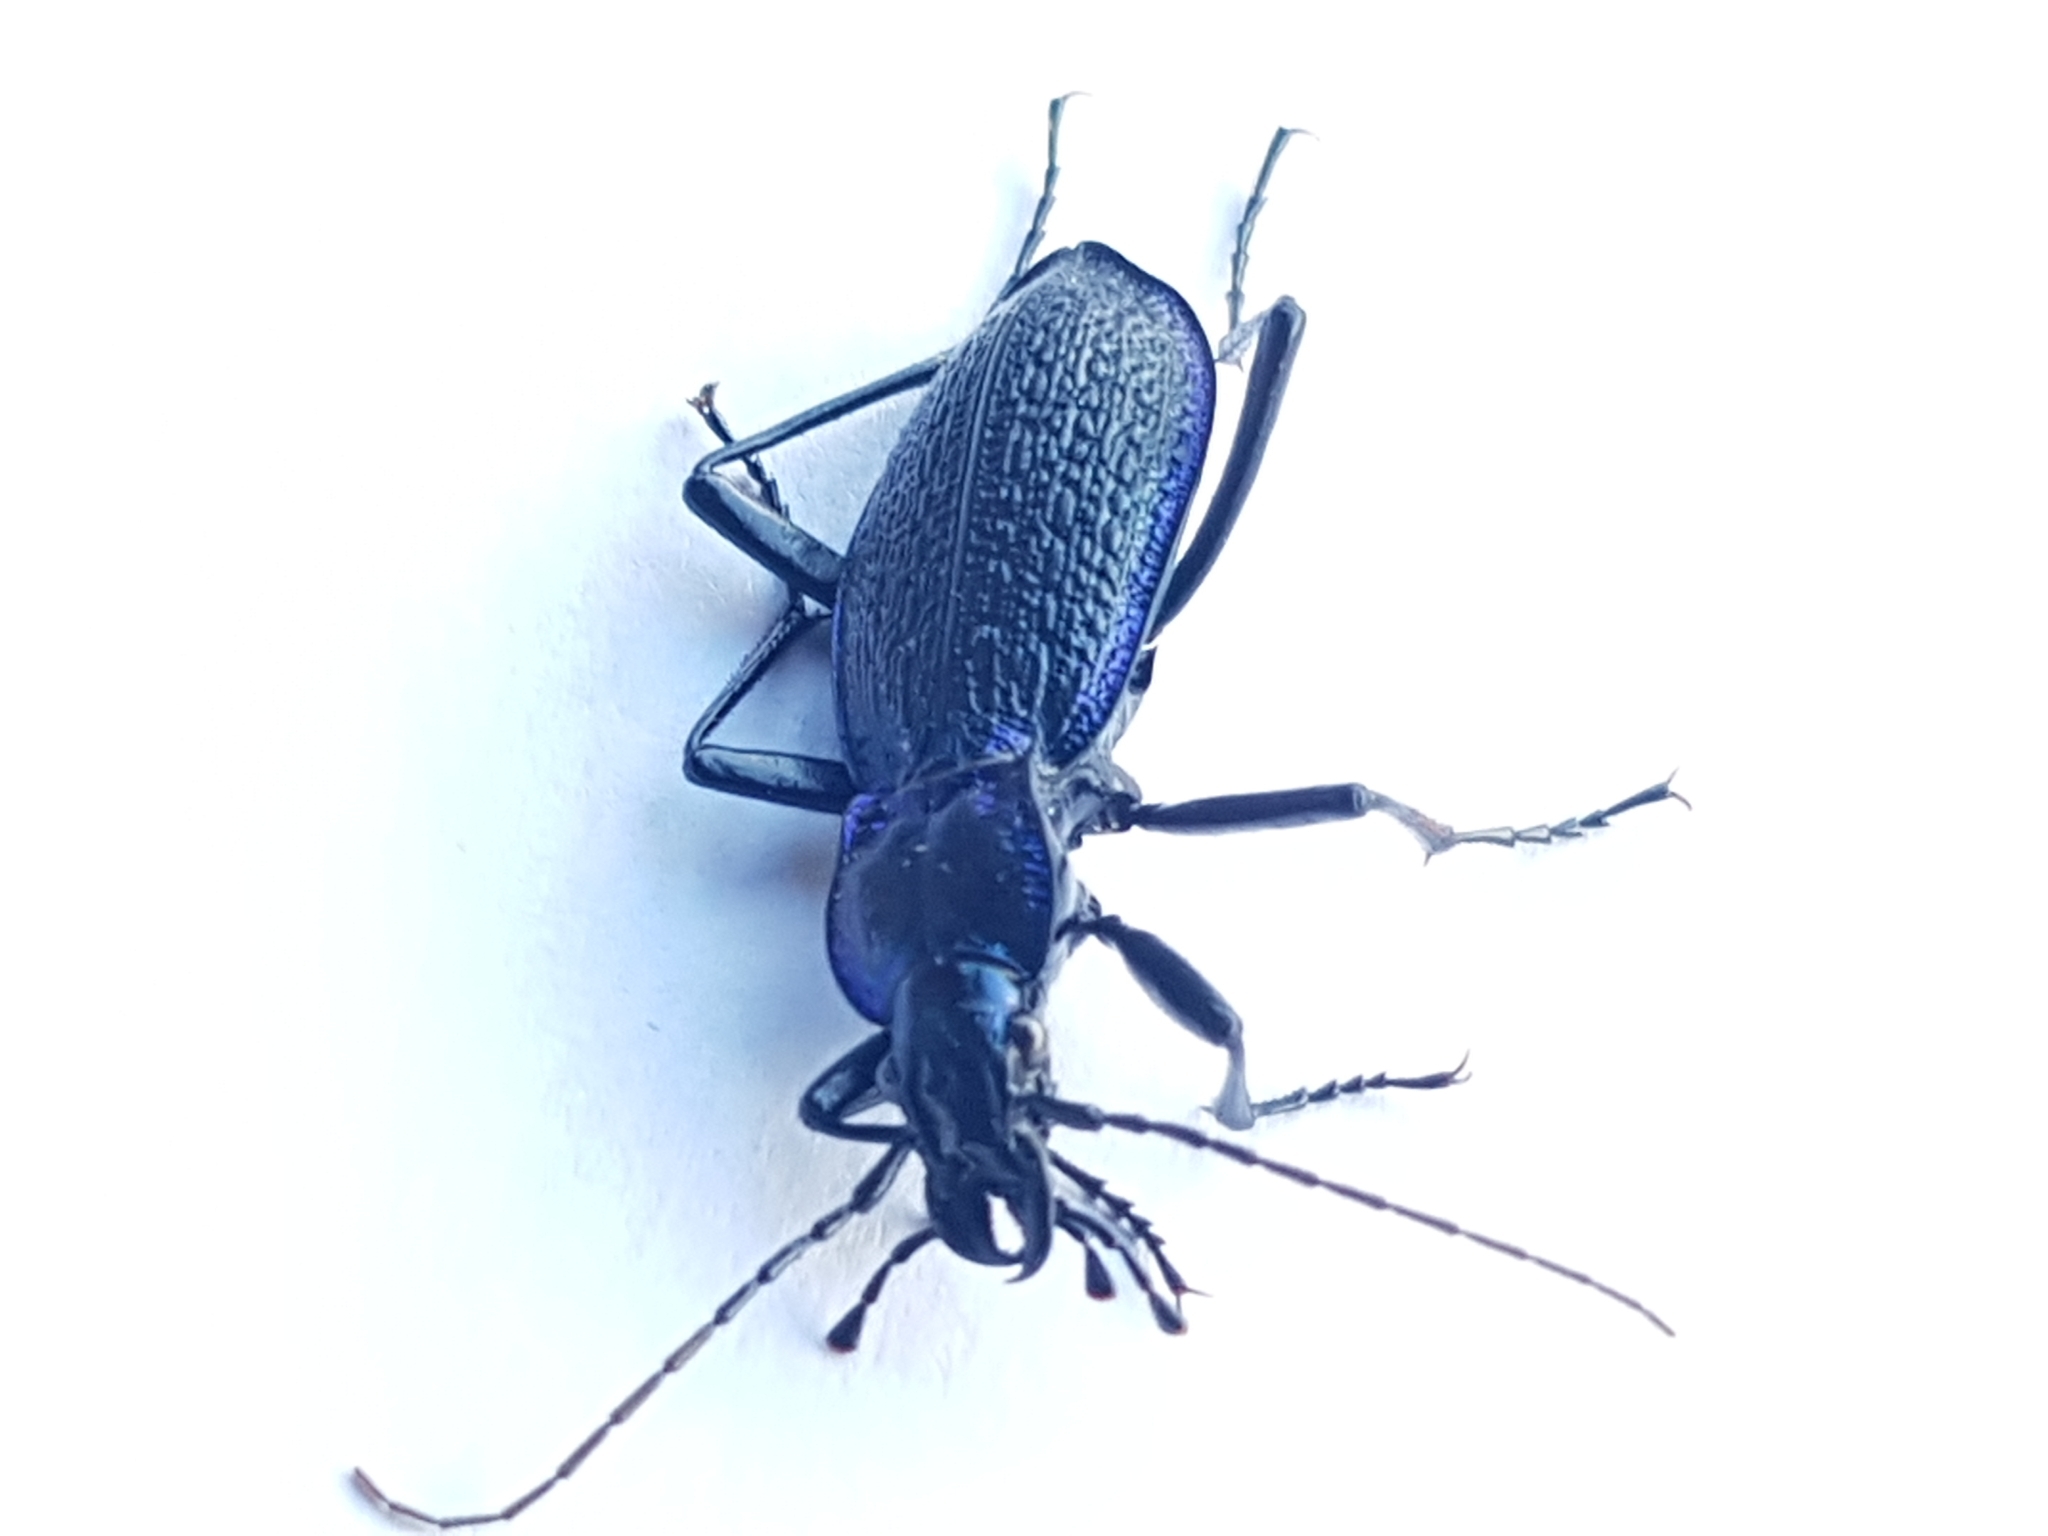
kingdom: Animalia
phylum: Arthropoda
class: Insecta
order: Coleoptera
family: Carabidae
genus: Carabus
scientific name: Carabus intricatus
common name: Blue ground beetle
